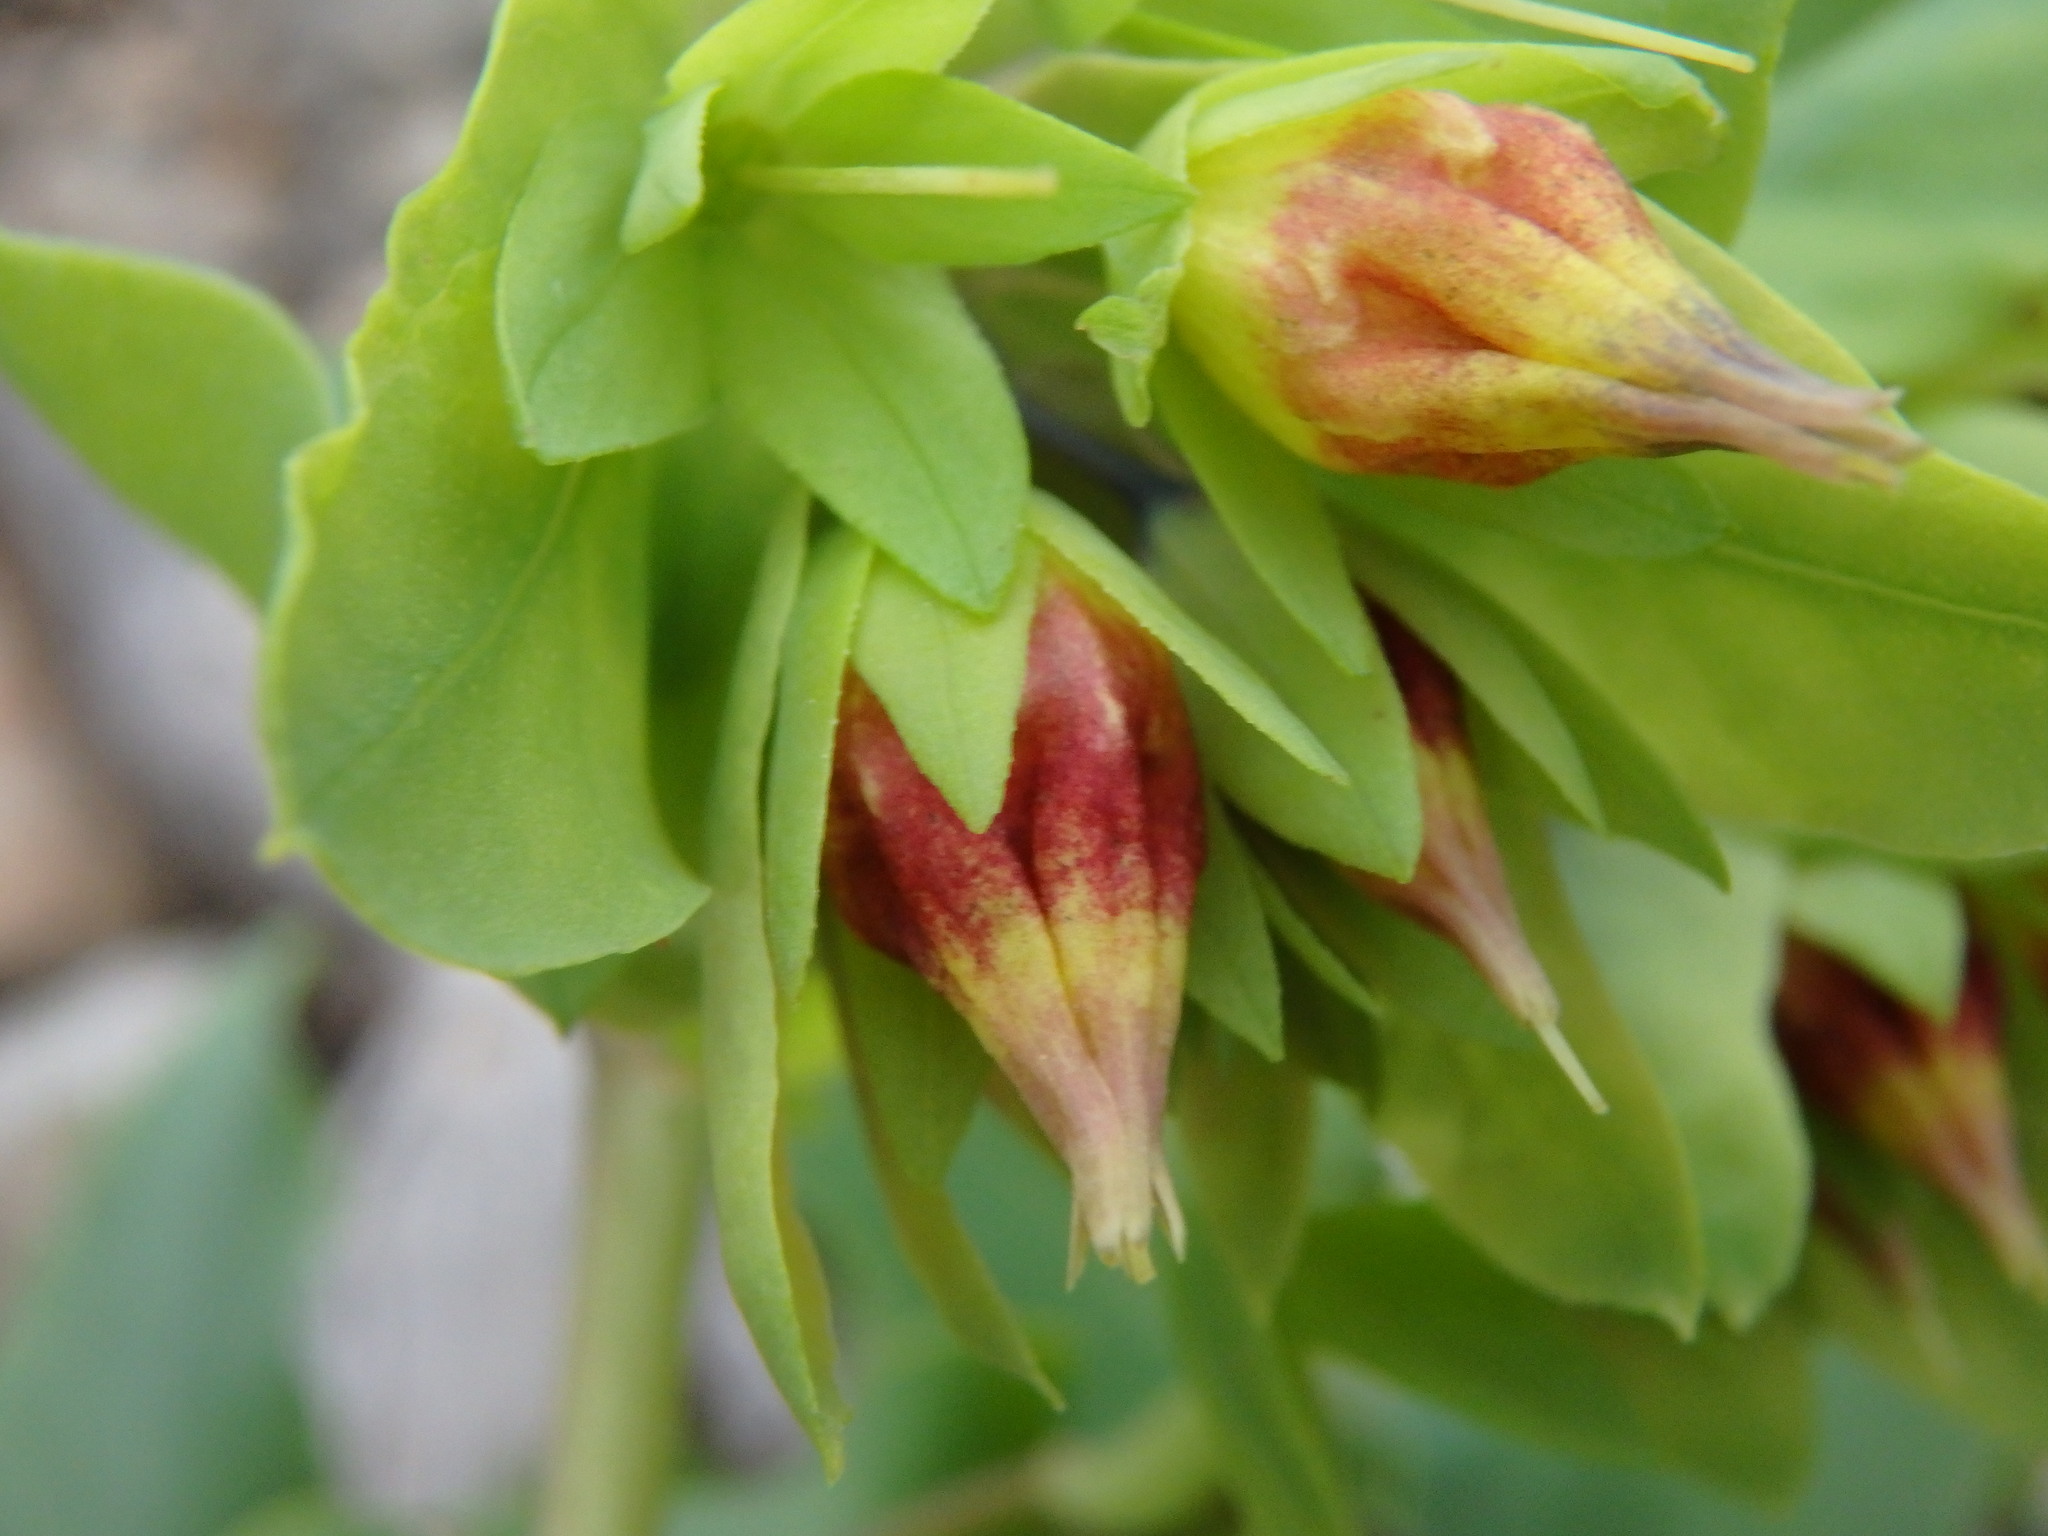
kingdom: Plantae
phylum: Tracheophyta
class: Magnoliopsida
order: Boraginales
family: Boraginaceae
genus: Cerinthe
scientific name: Cerinthe minor
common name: Lesser honeywort
